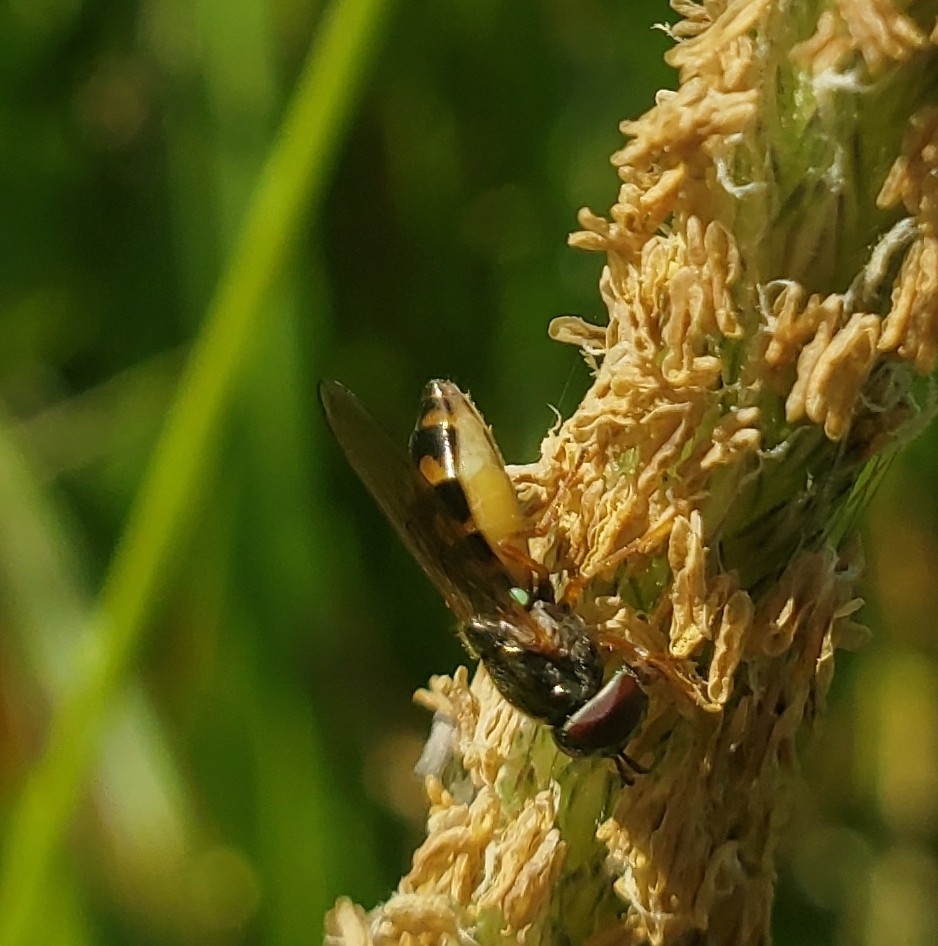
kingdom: Animalia
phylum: Arthropoda
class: Insecta
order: Diptera
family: Syrphidae
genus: Melanostoma
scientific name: Melanostoma mellina
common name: Hover fly
